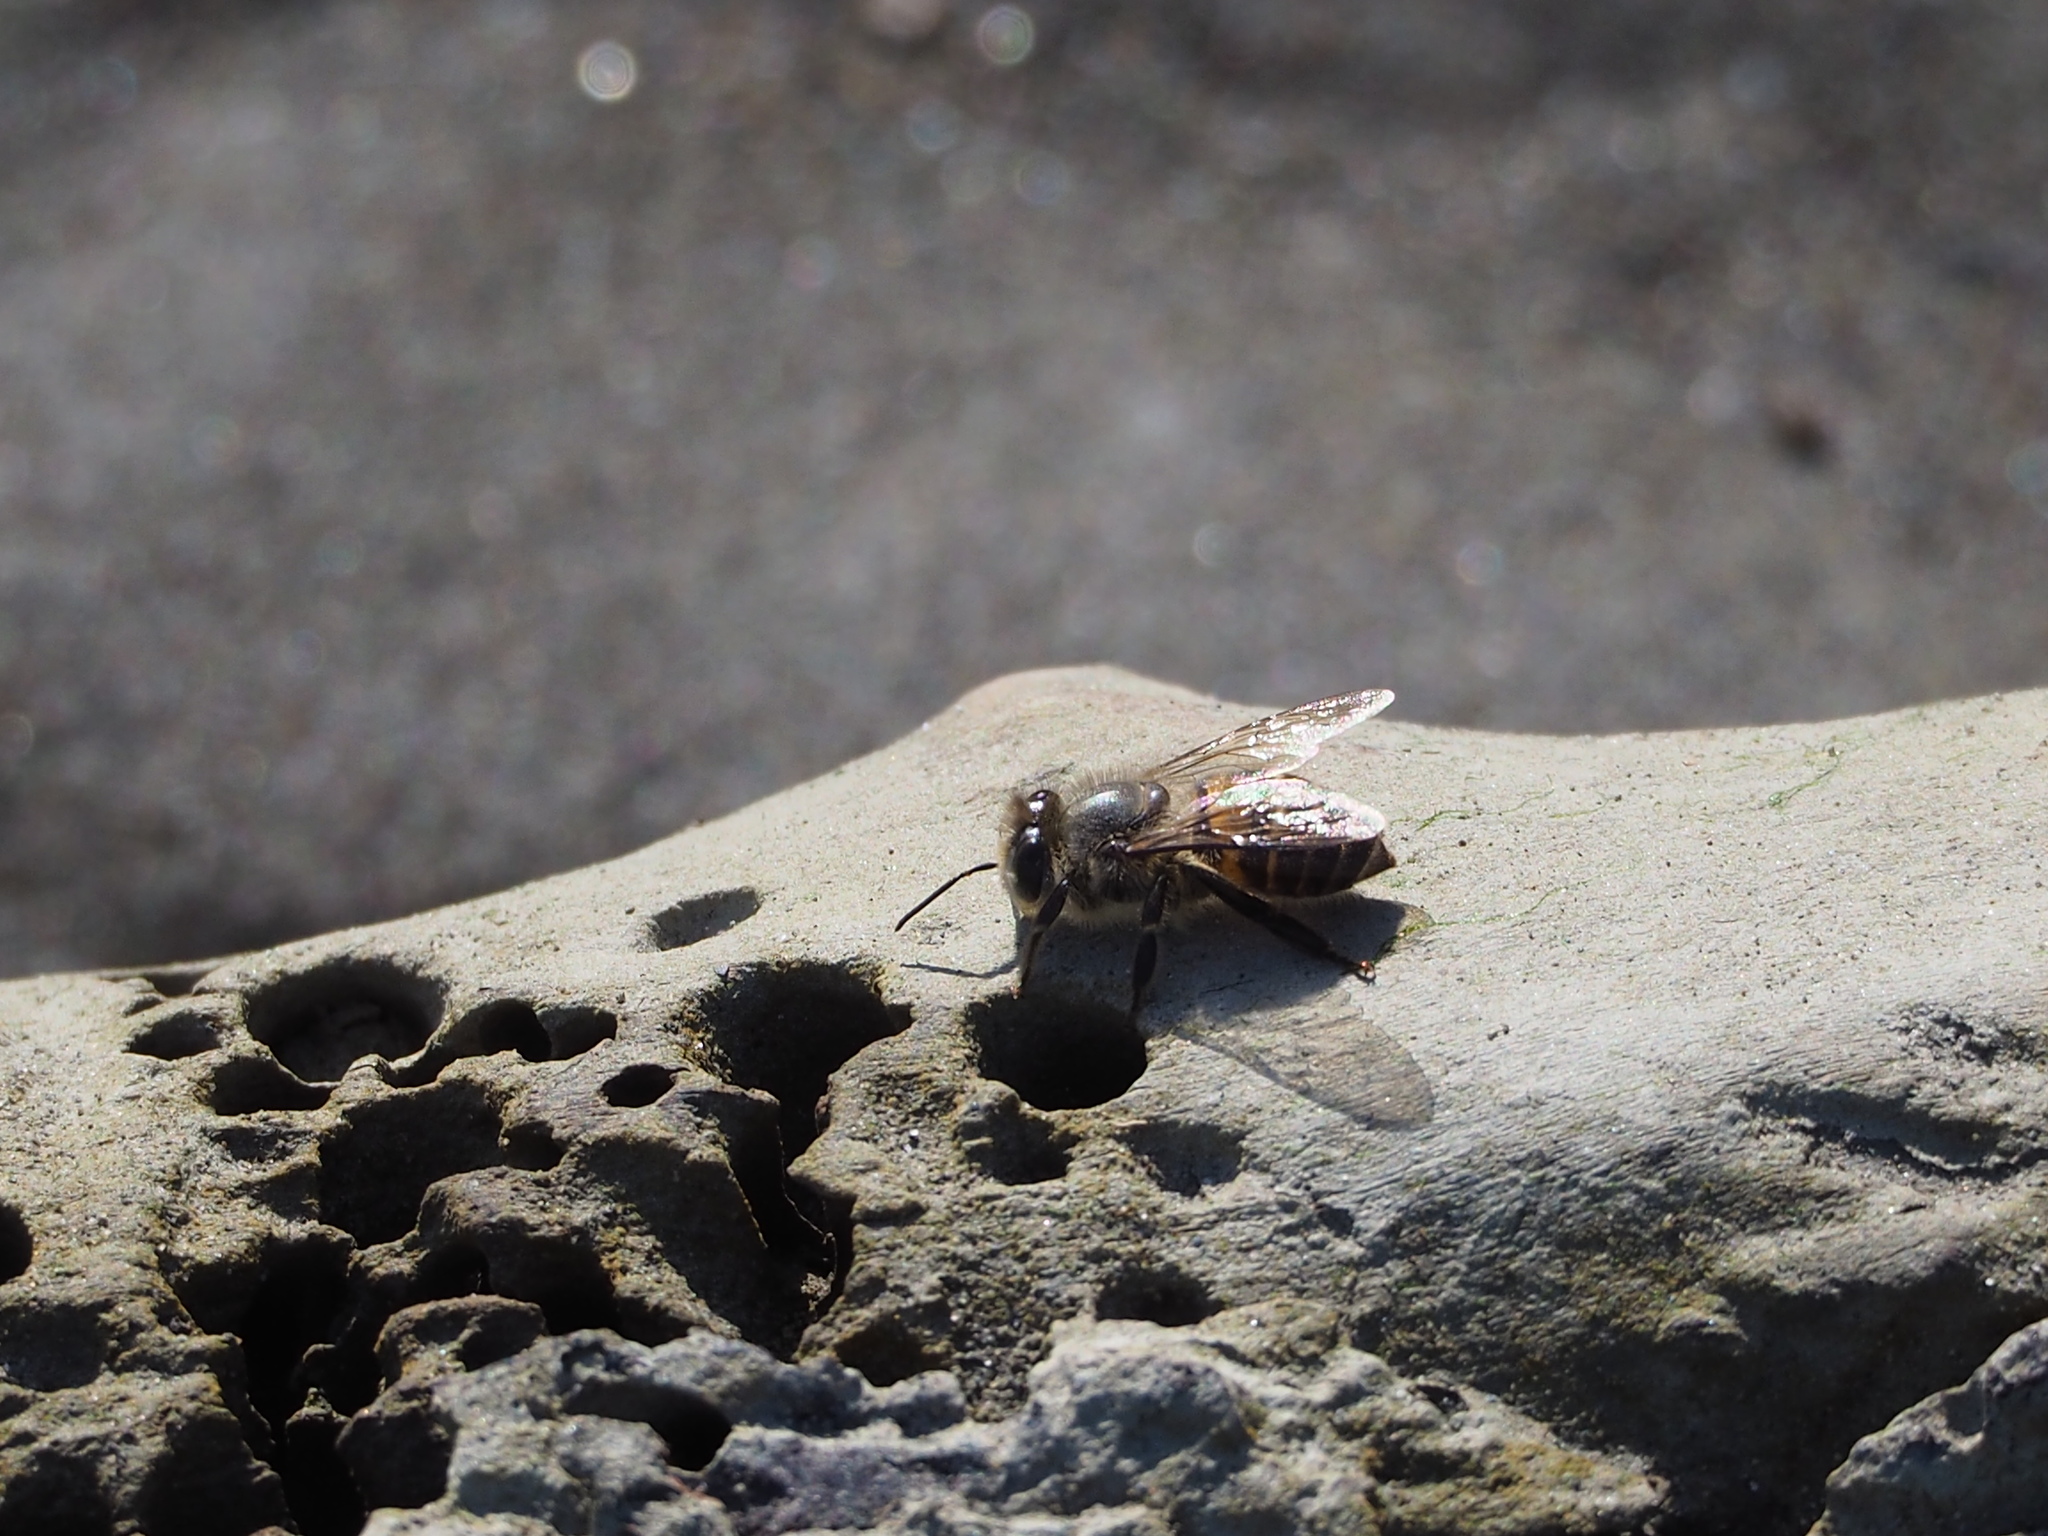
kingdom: Animalia
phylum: Arthropoda
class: Insecta
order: Hymenoptera
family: Apidae
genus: Apis
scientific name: Apis cerana
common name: Honey bee
